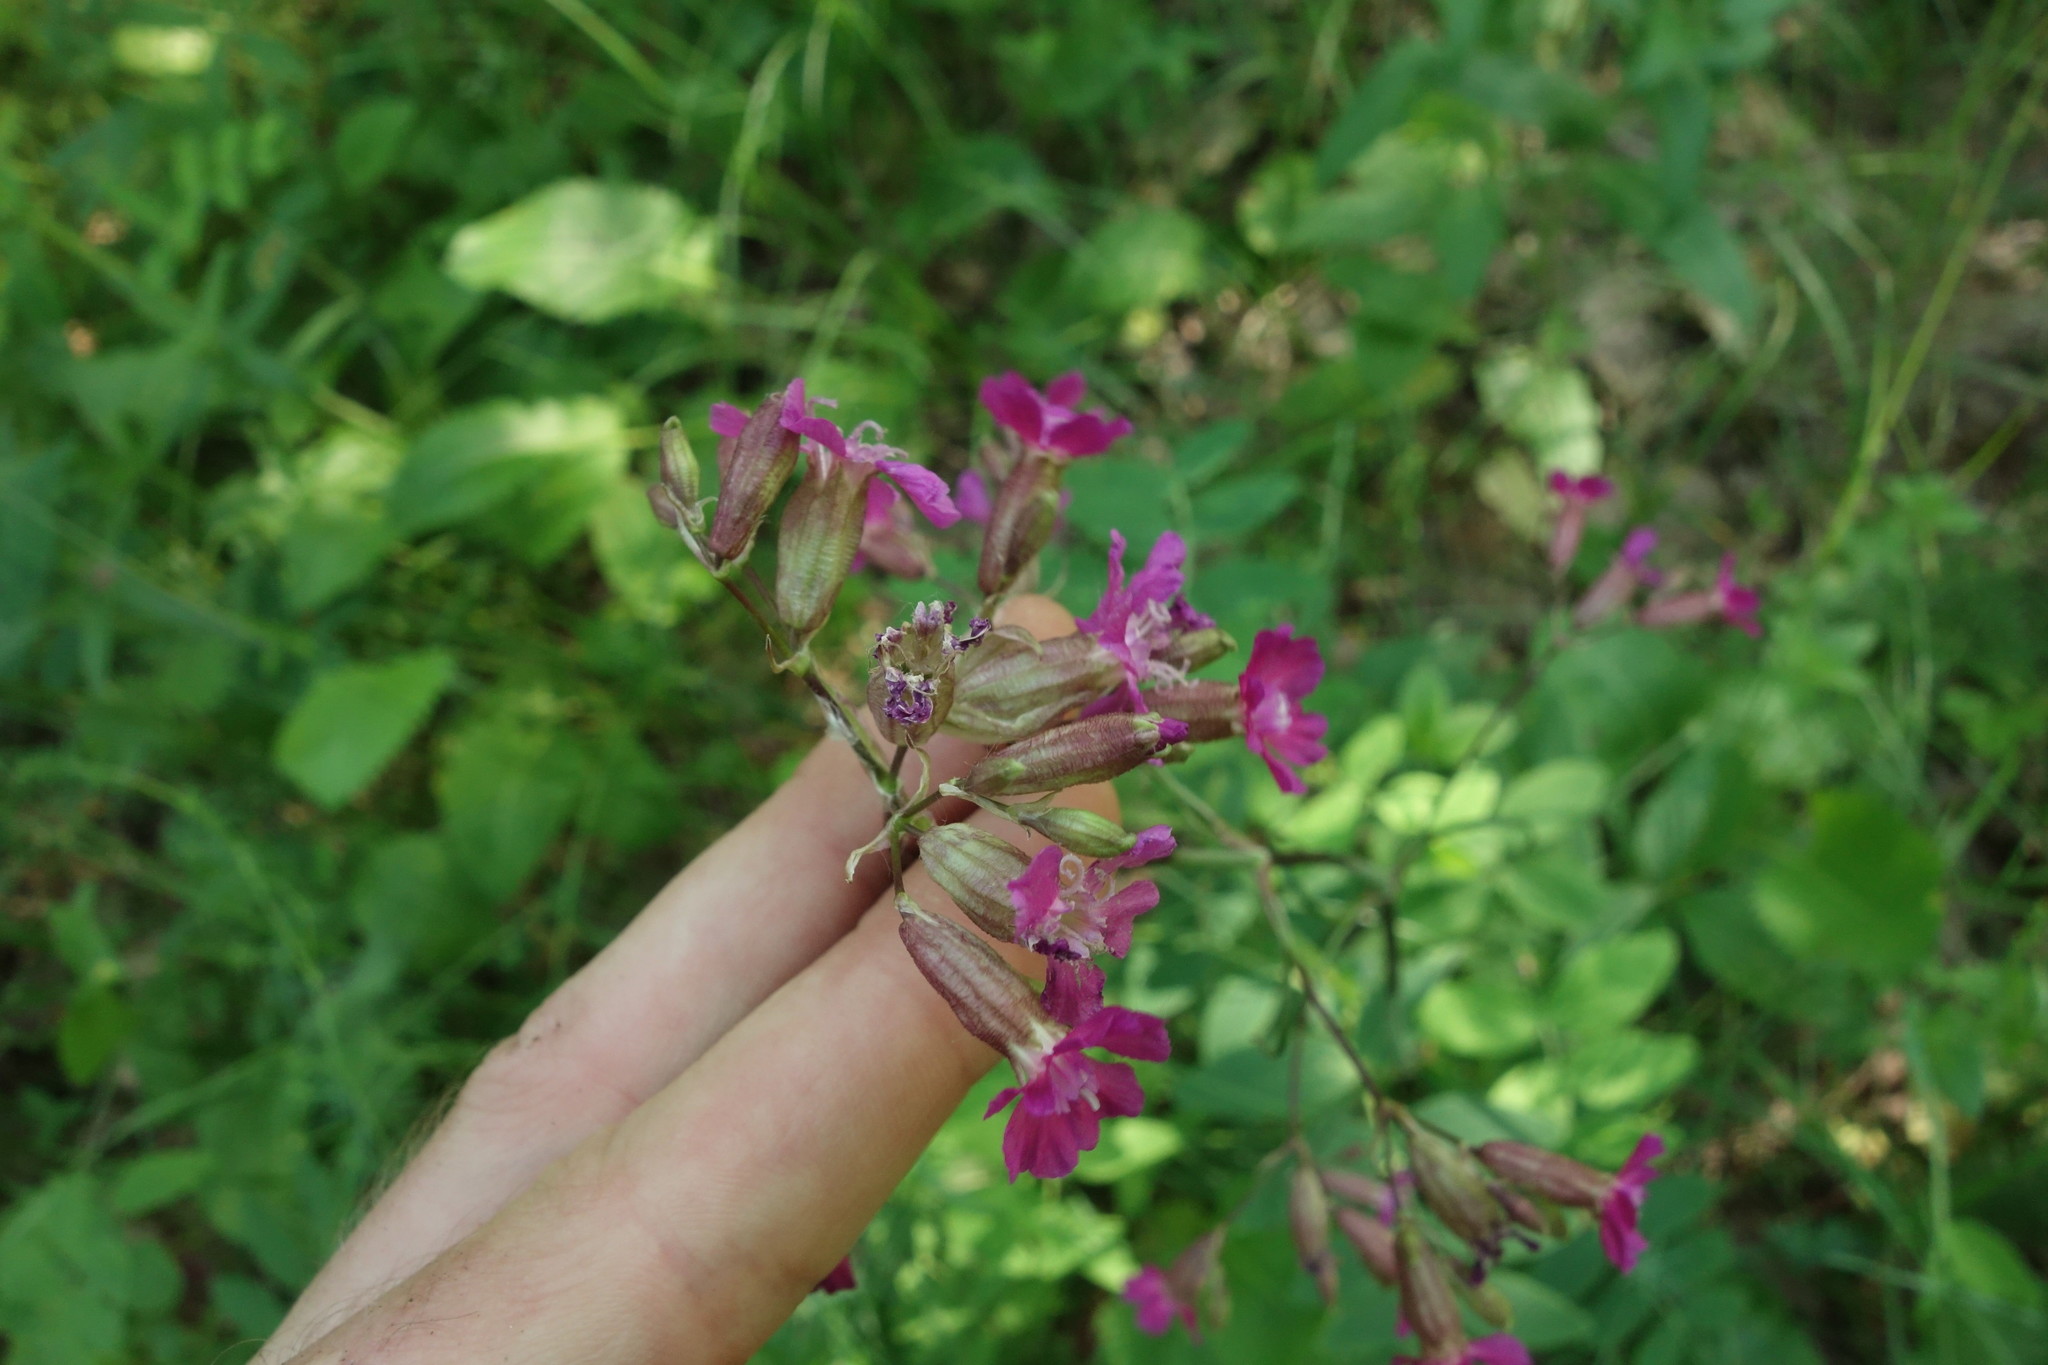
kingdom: Plantae
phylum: Tracheophyta
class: Magnoliopsida
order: Caryophyllales
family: Caryophyllaceae
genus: Viscaria
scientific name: Viscaria vulgaris
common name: Clammy campion
